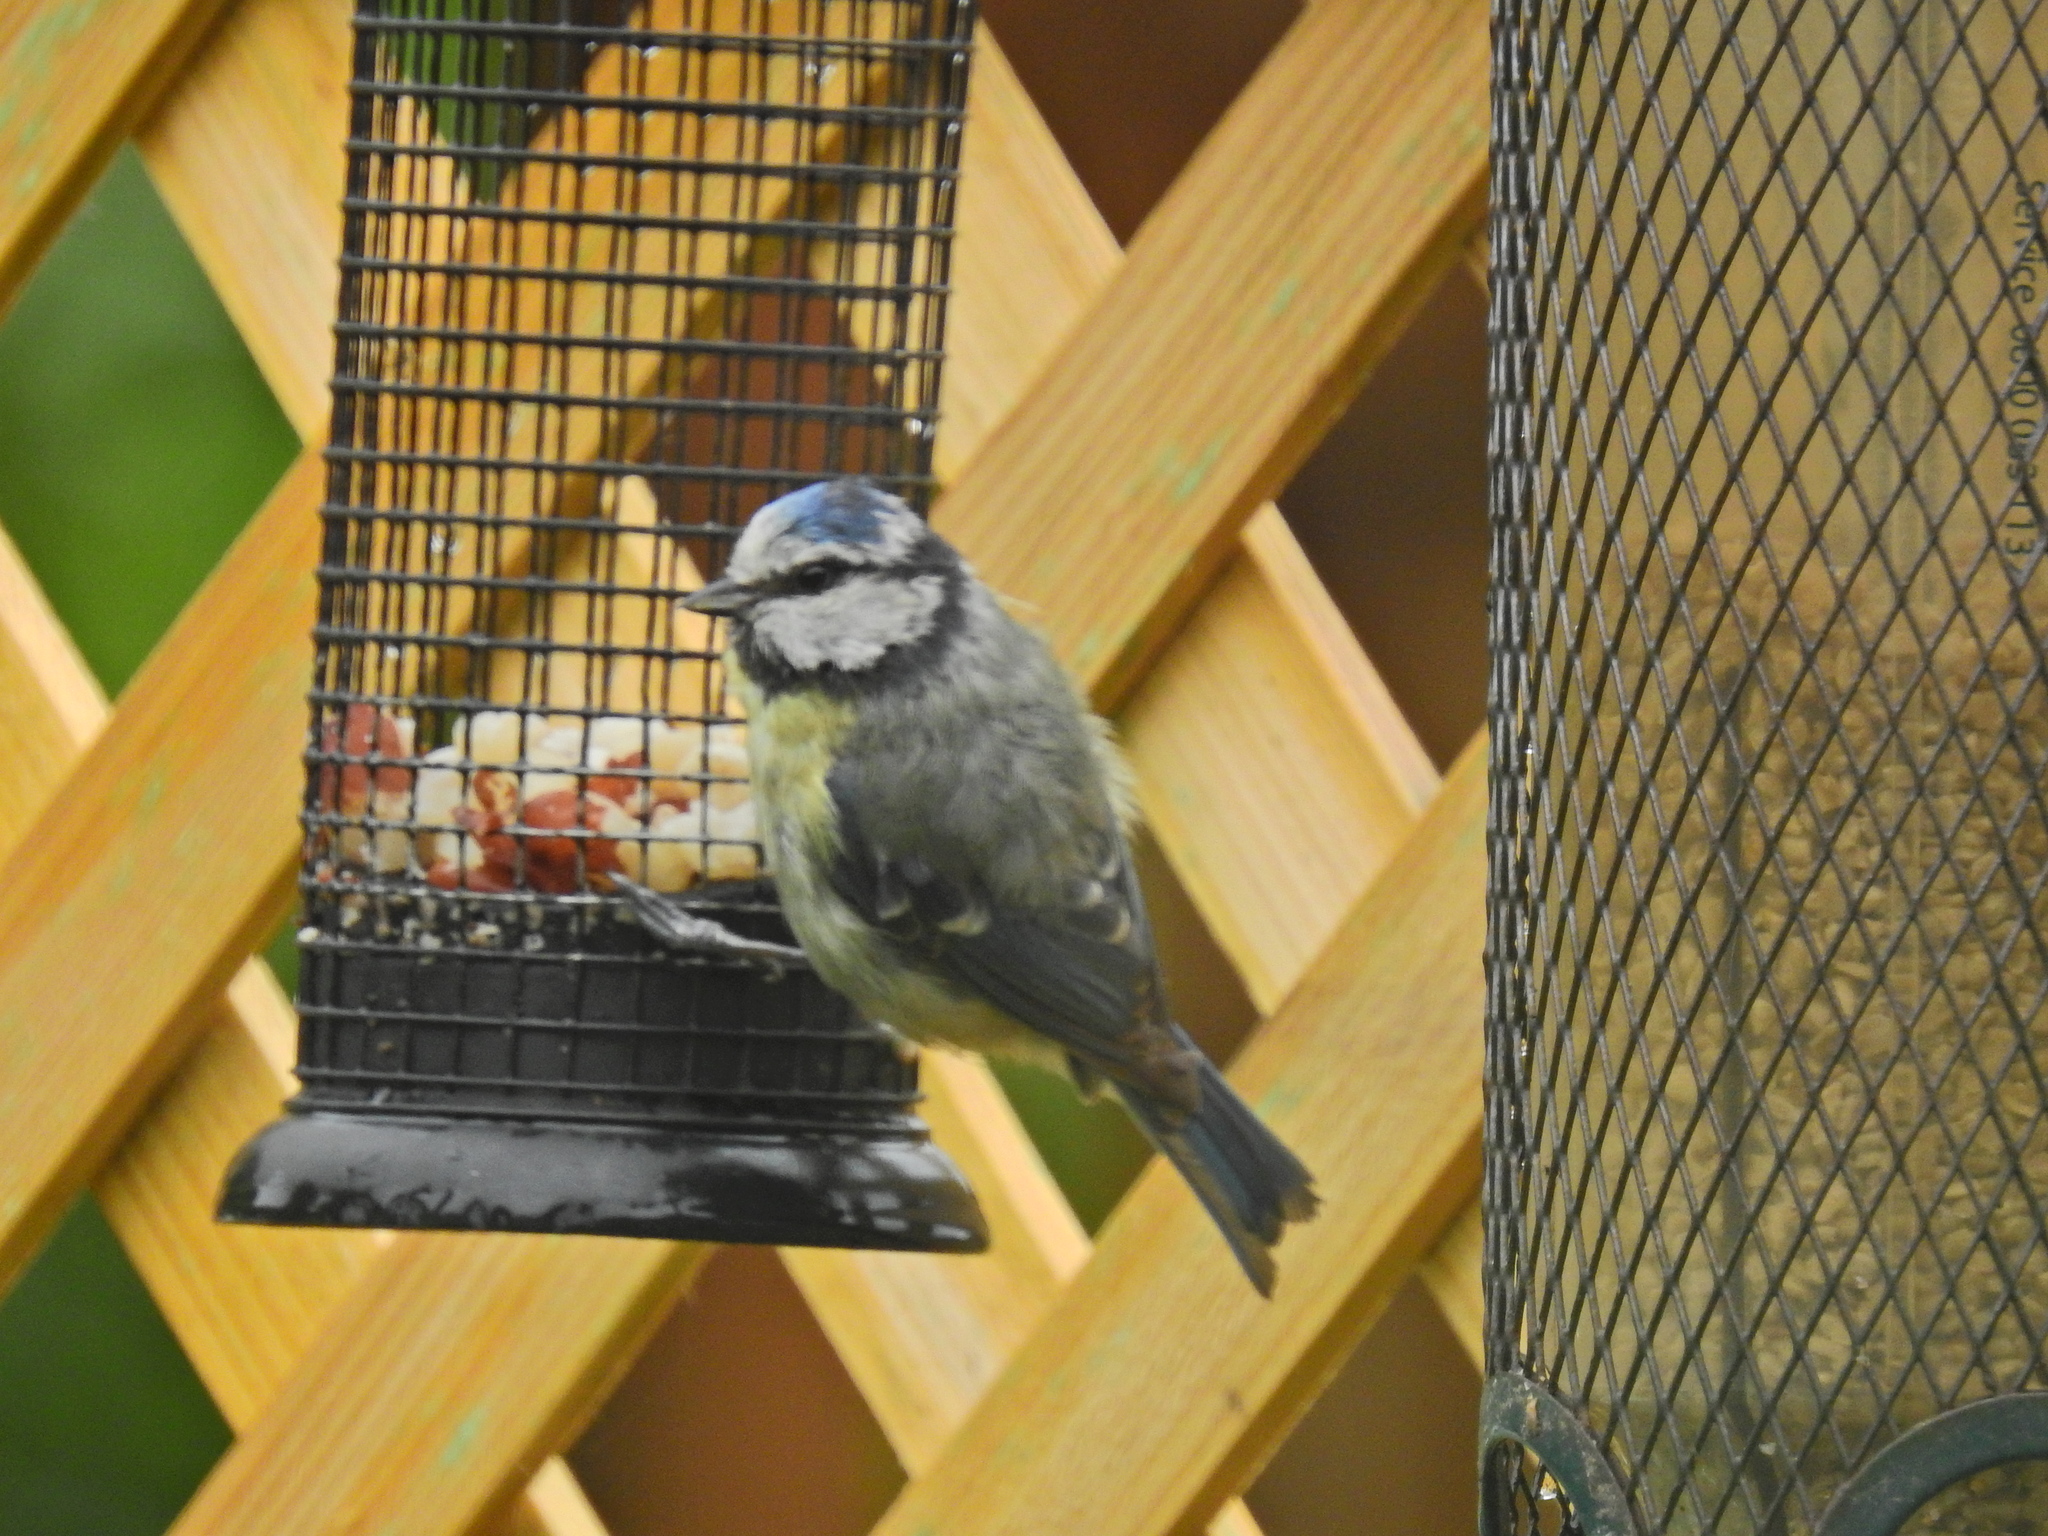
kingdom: Animalia
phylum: Chordata
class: Aves
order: Passeriformes
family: Paridae
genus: Cyanistes
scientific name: Cyanistes caeruleus
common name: Eurasian blue tit
